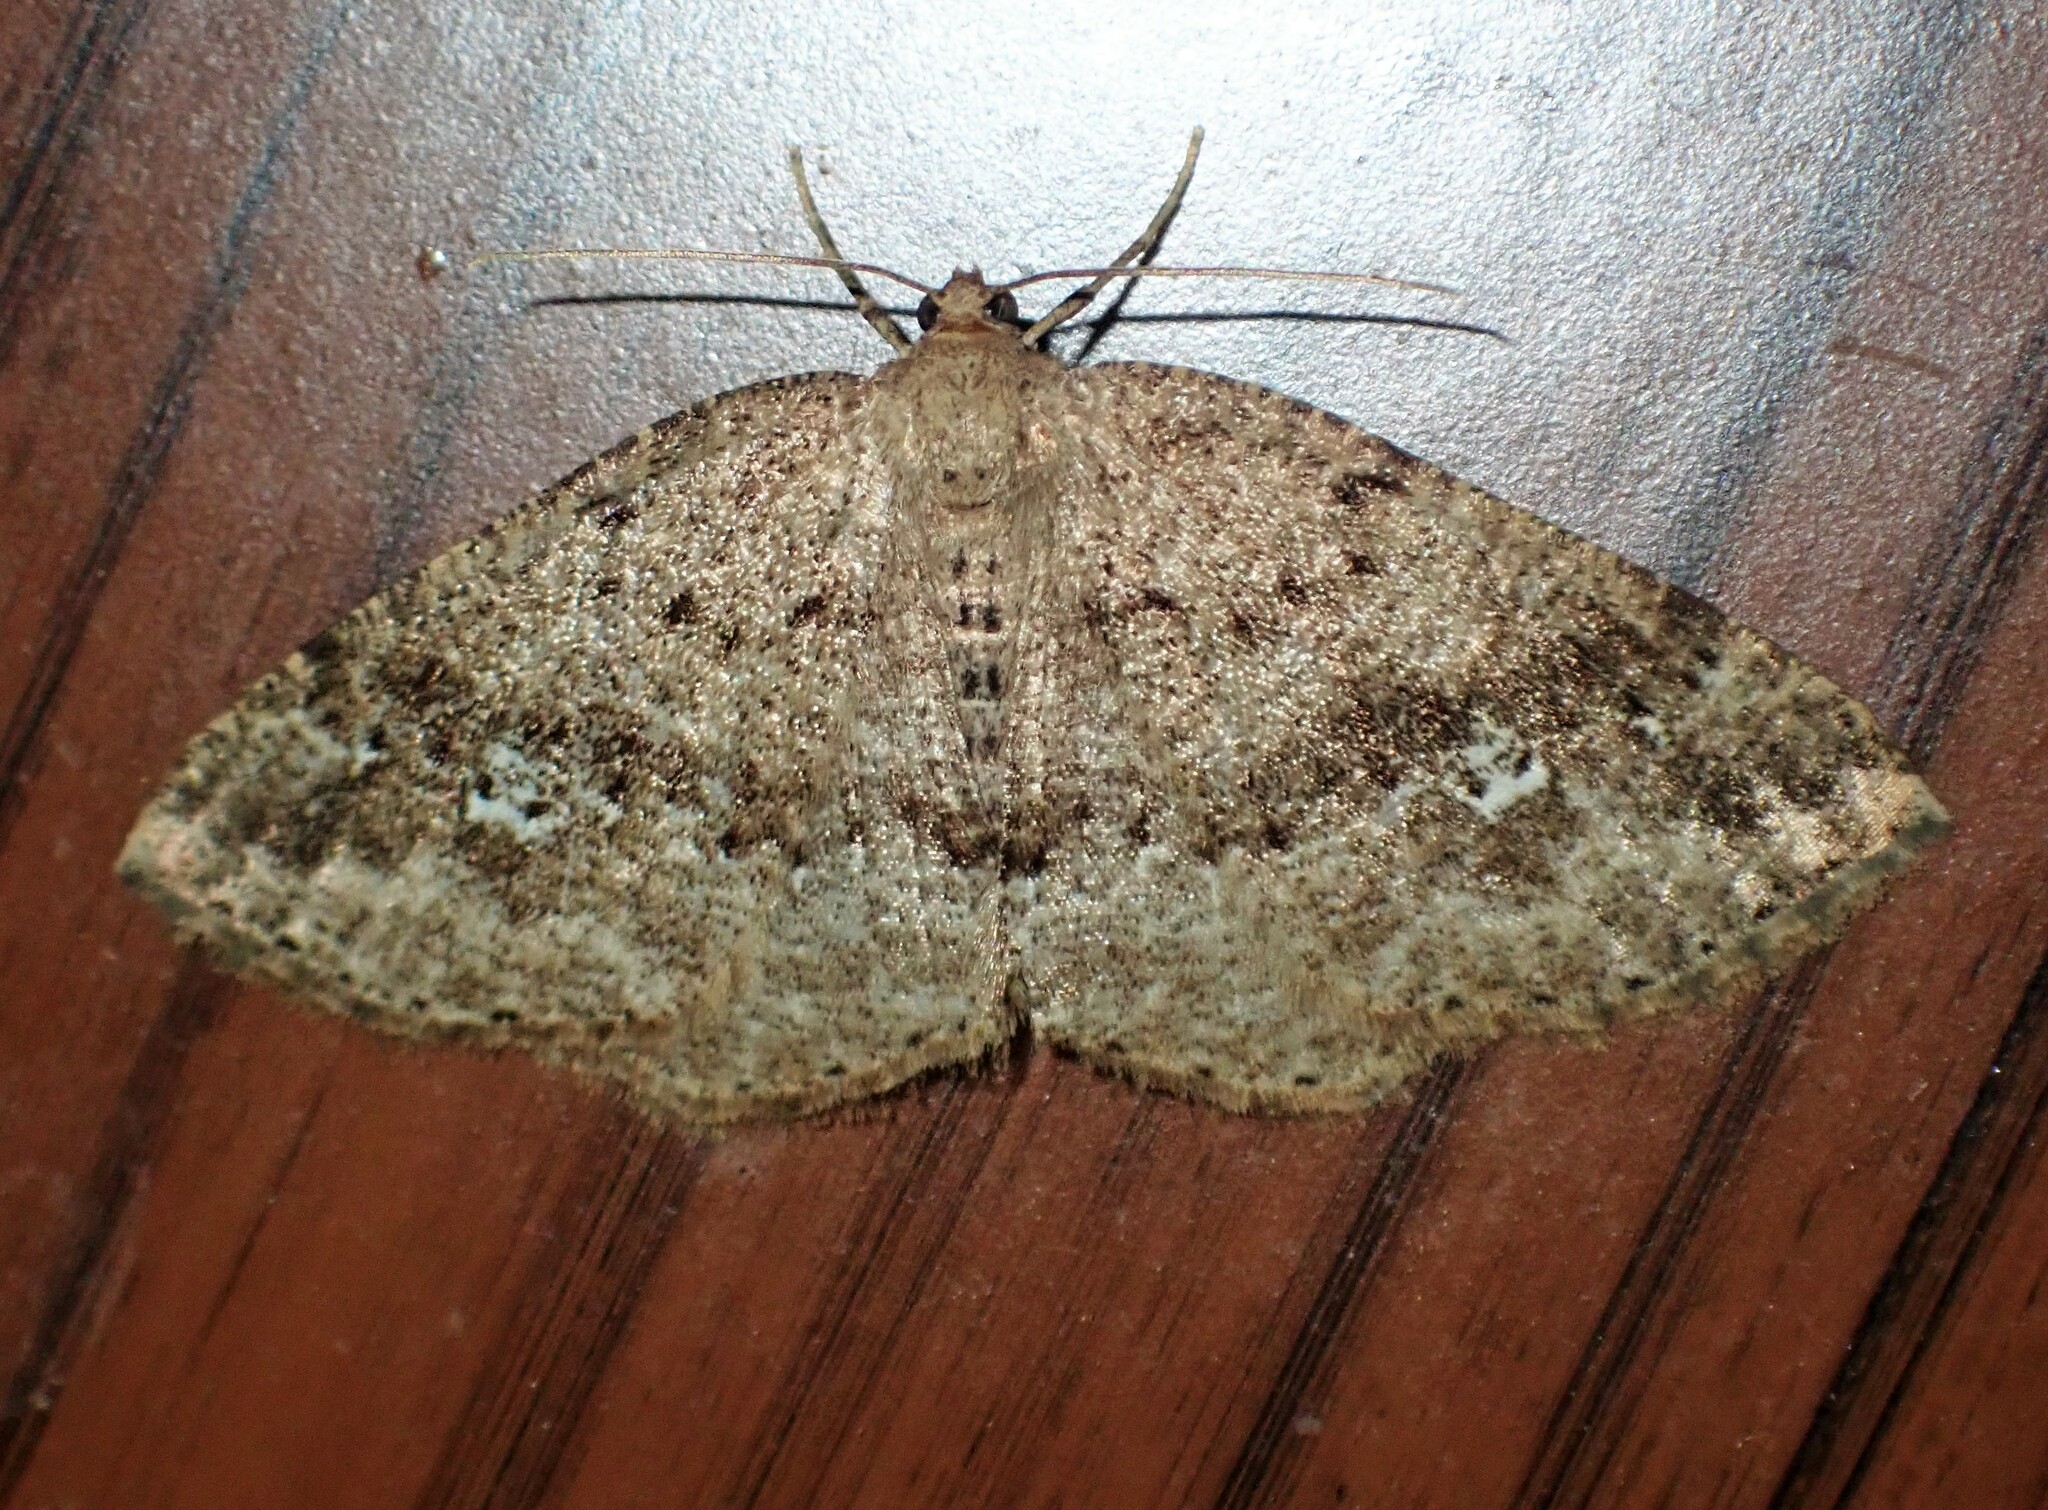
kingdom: Animalia
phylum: Arthropoda
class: Insecta
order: Lepidoptera
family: Geometridae
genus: Homochlodes
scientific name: Homochlodes fritillaria
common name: Pale homochlodes
